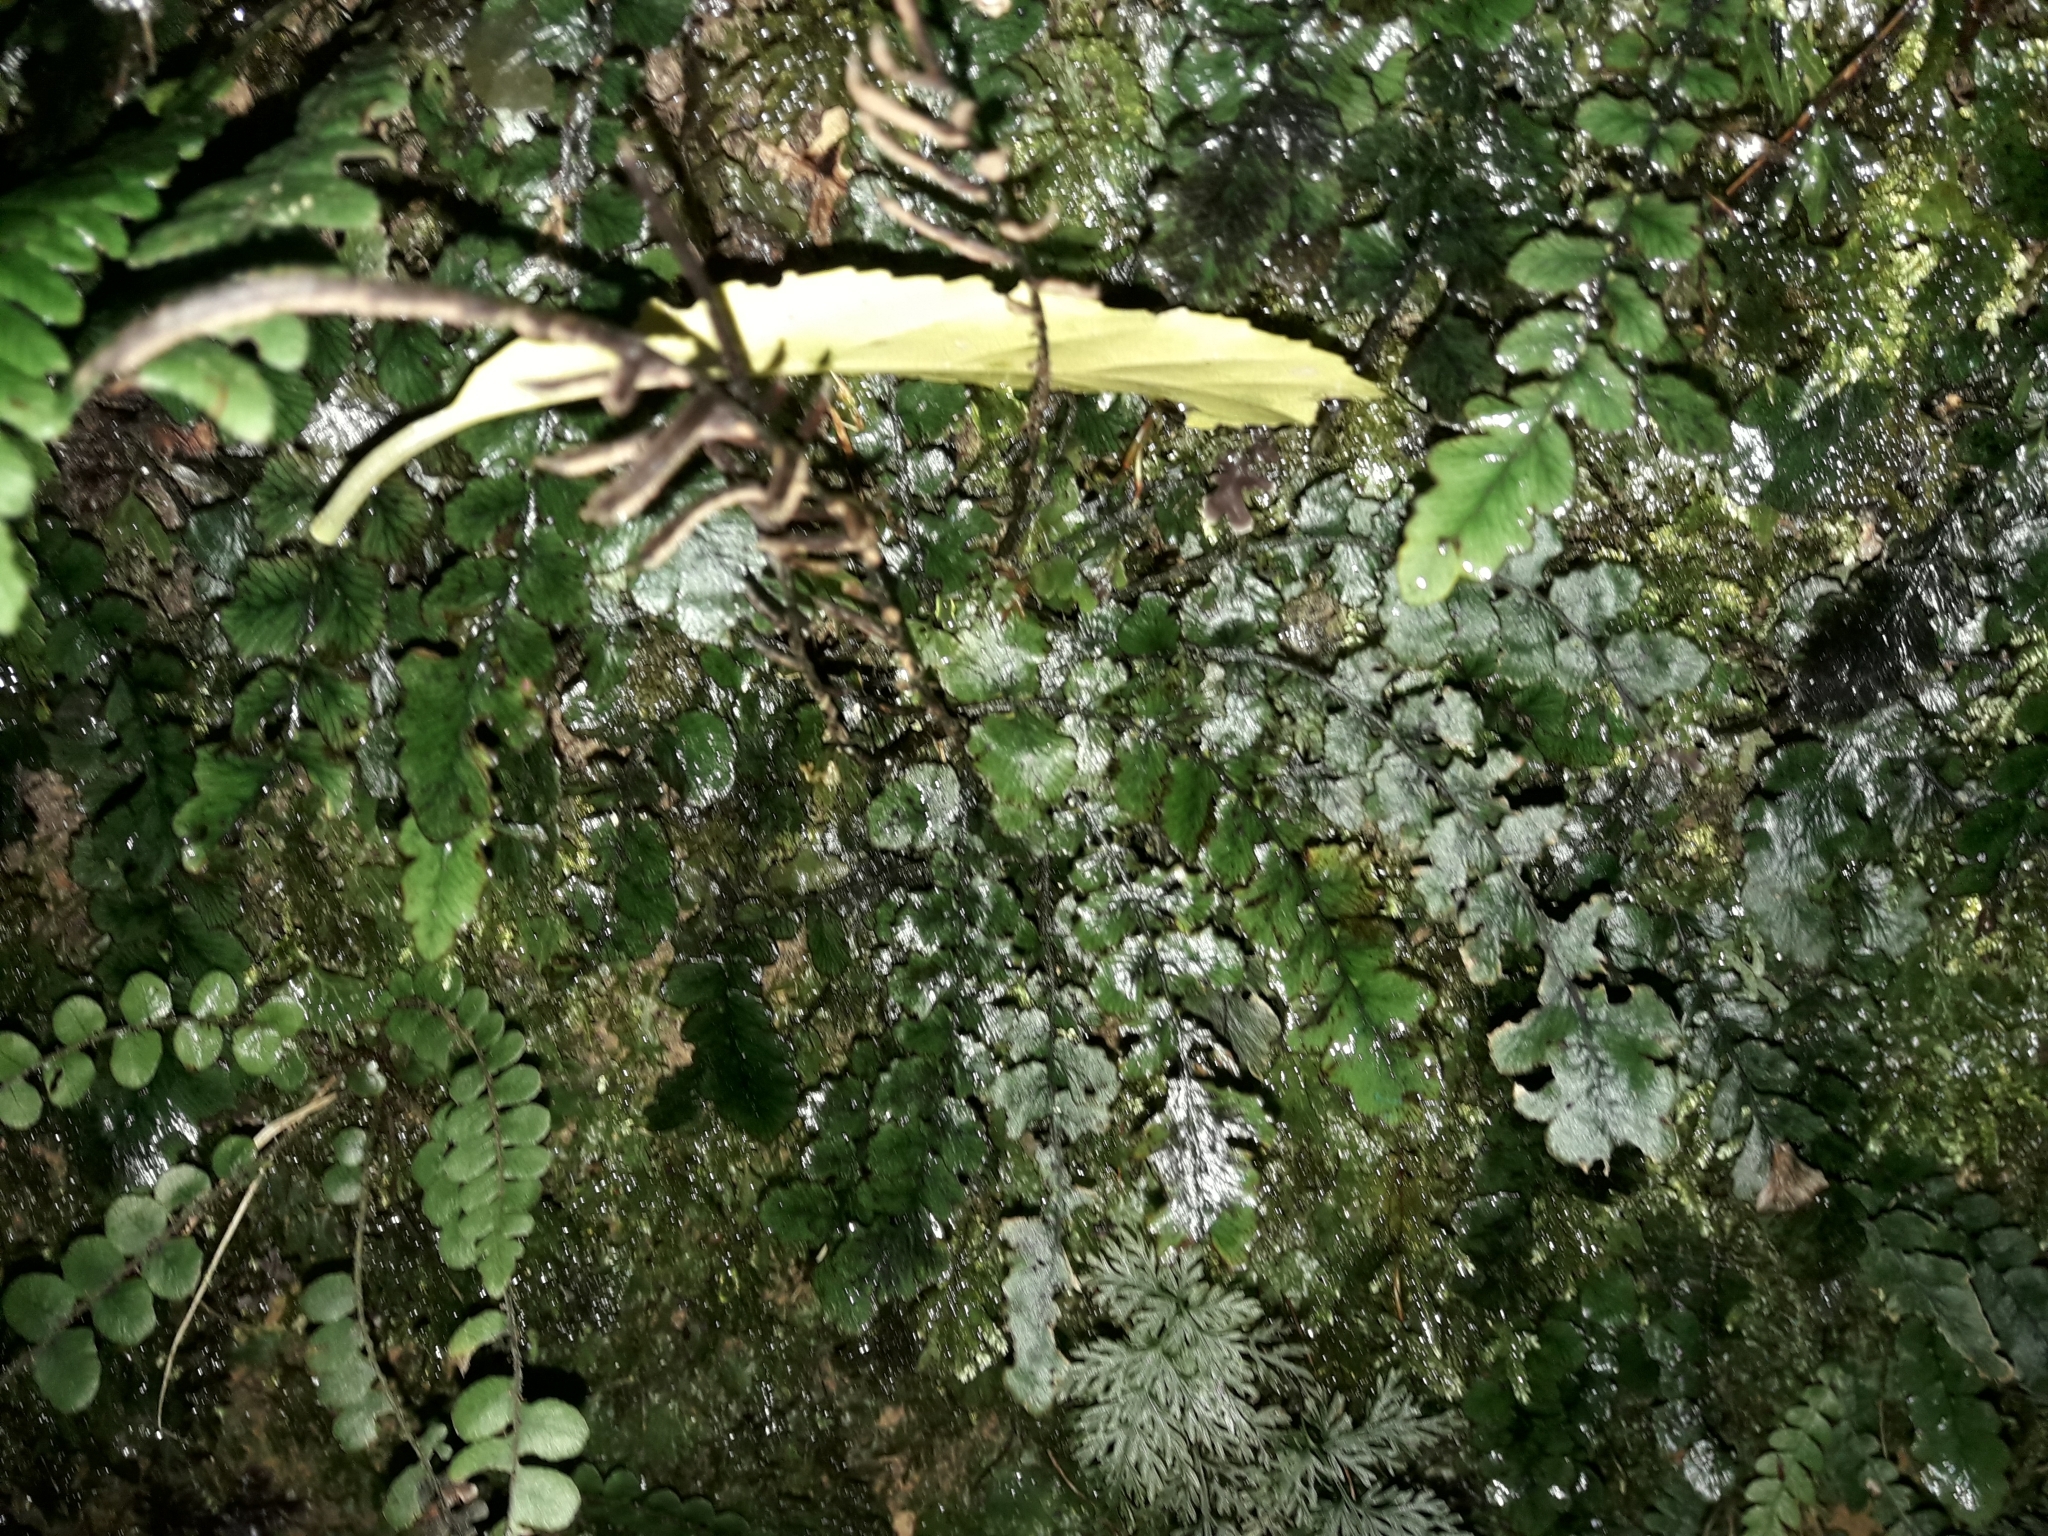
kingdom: Plantae
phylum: Tracheophyta
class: Polypodiopsida
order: Polypodiales
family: Blechnaceae
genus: Cranfillia
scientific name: Cranfillia nigra
